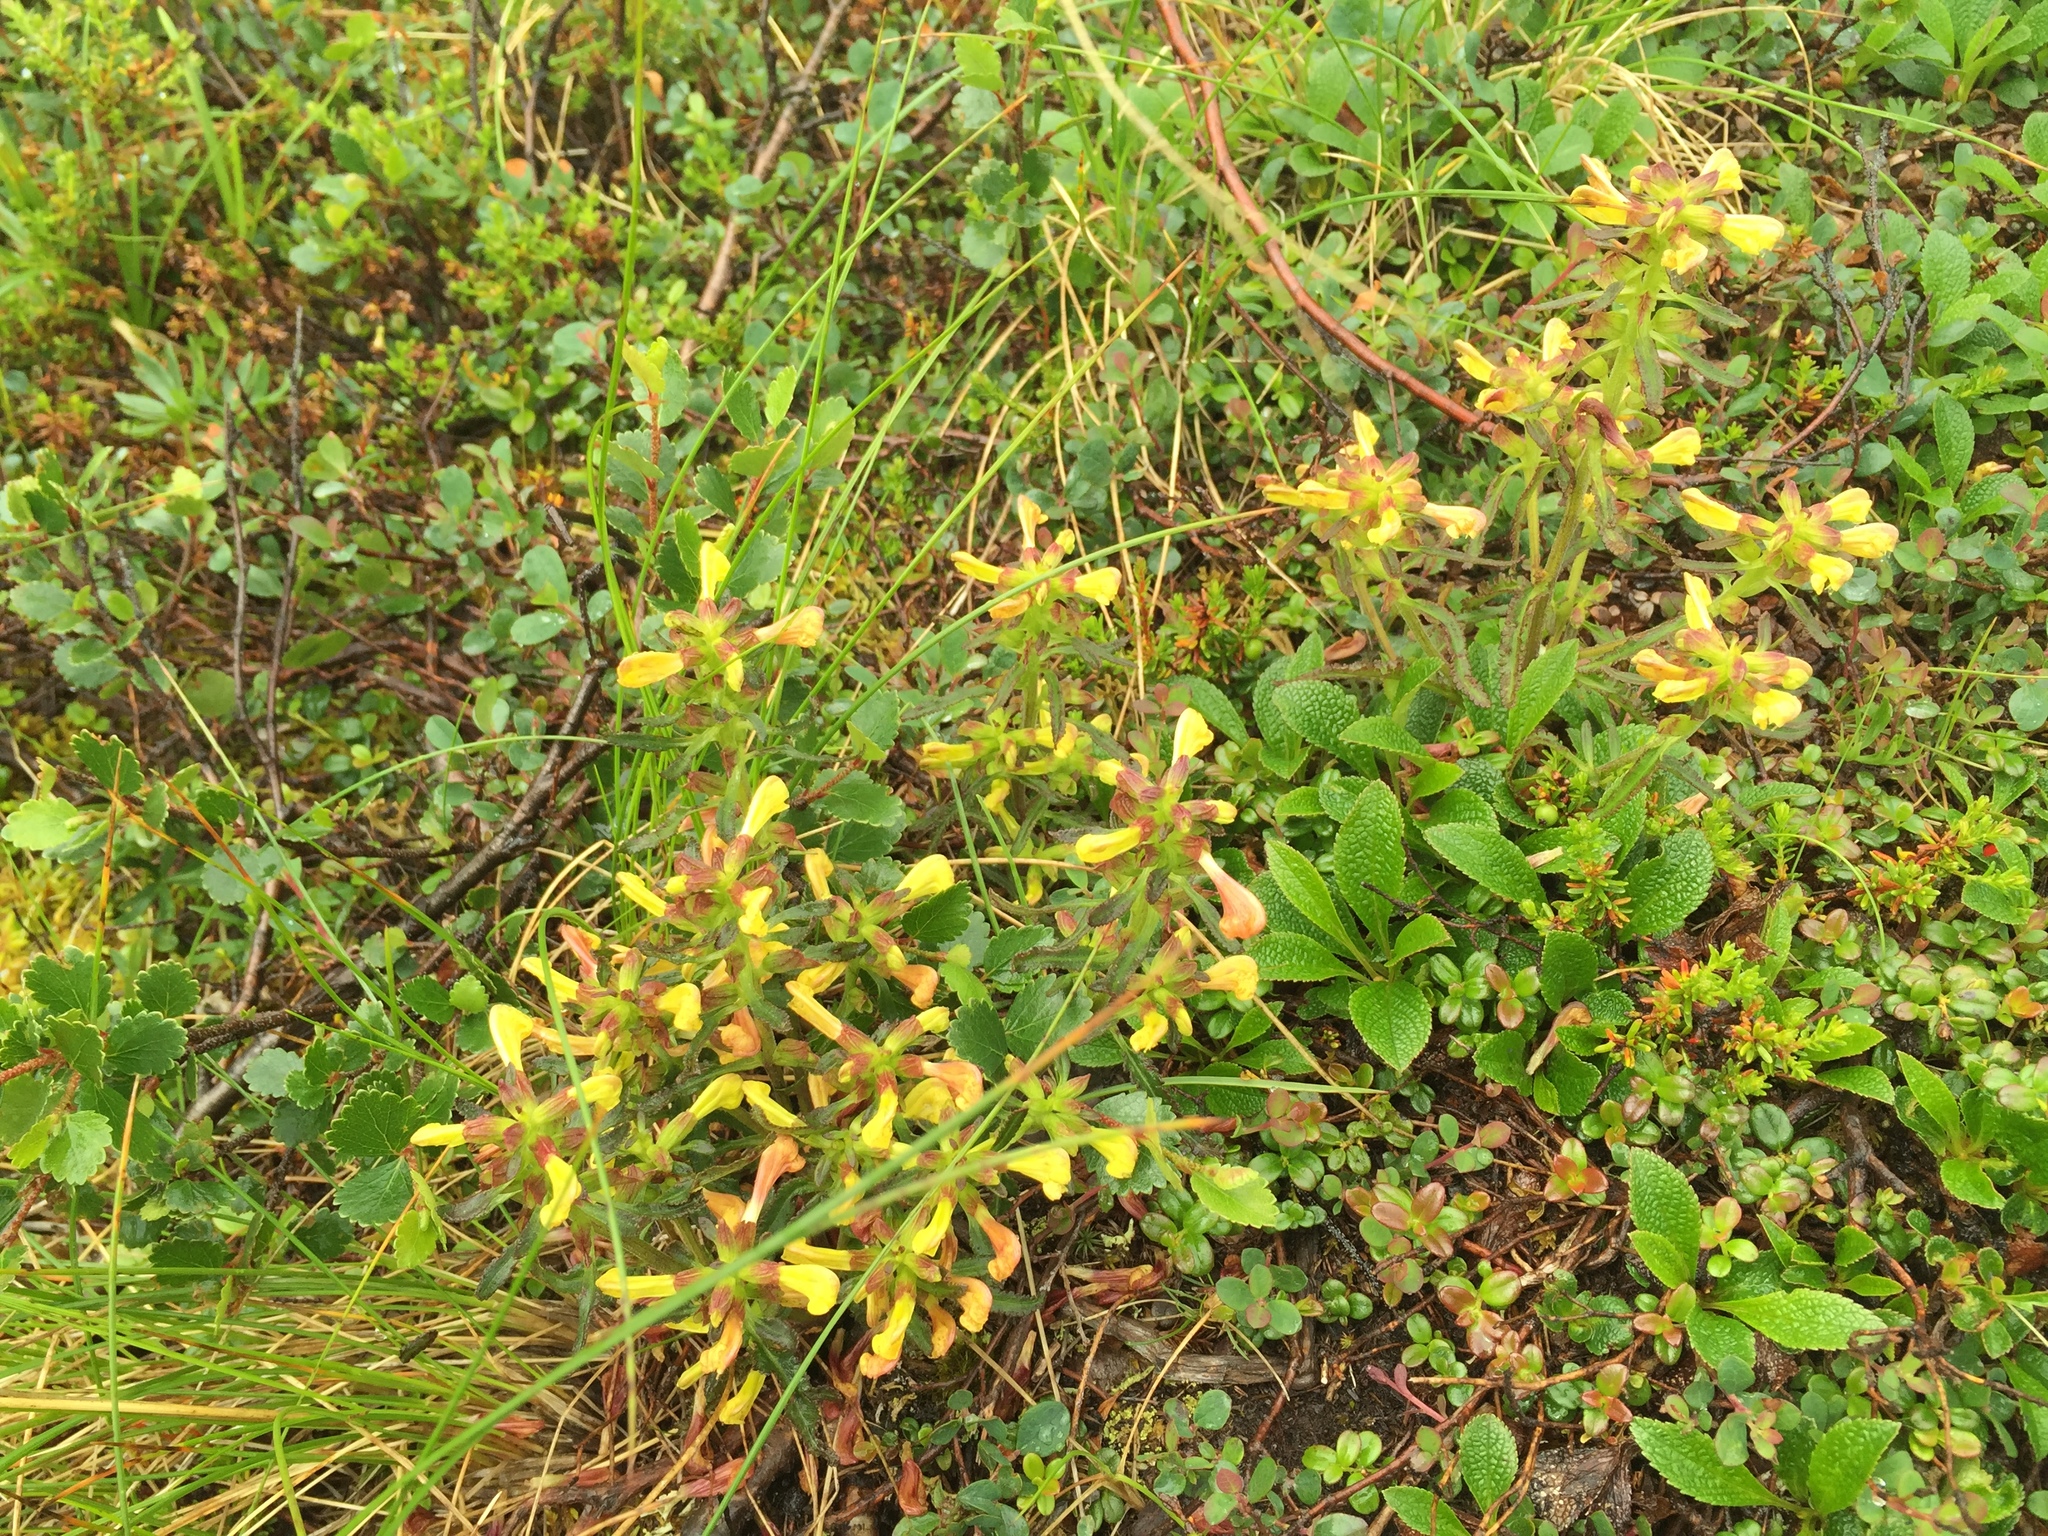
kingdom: Plantae
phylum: Tracheophyta
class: Magnoliopsida
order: Lamiales
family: Orobanchaceae
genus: Pedicularis
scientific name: Pedicularis labradorica
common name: Labrador lousewort
